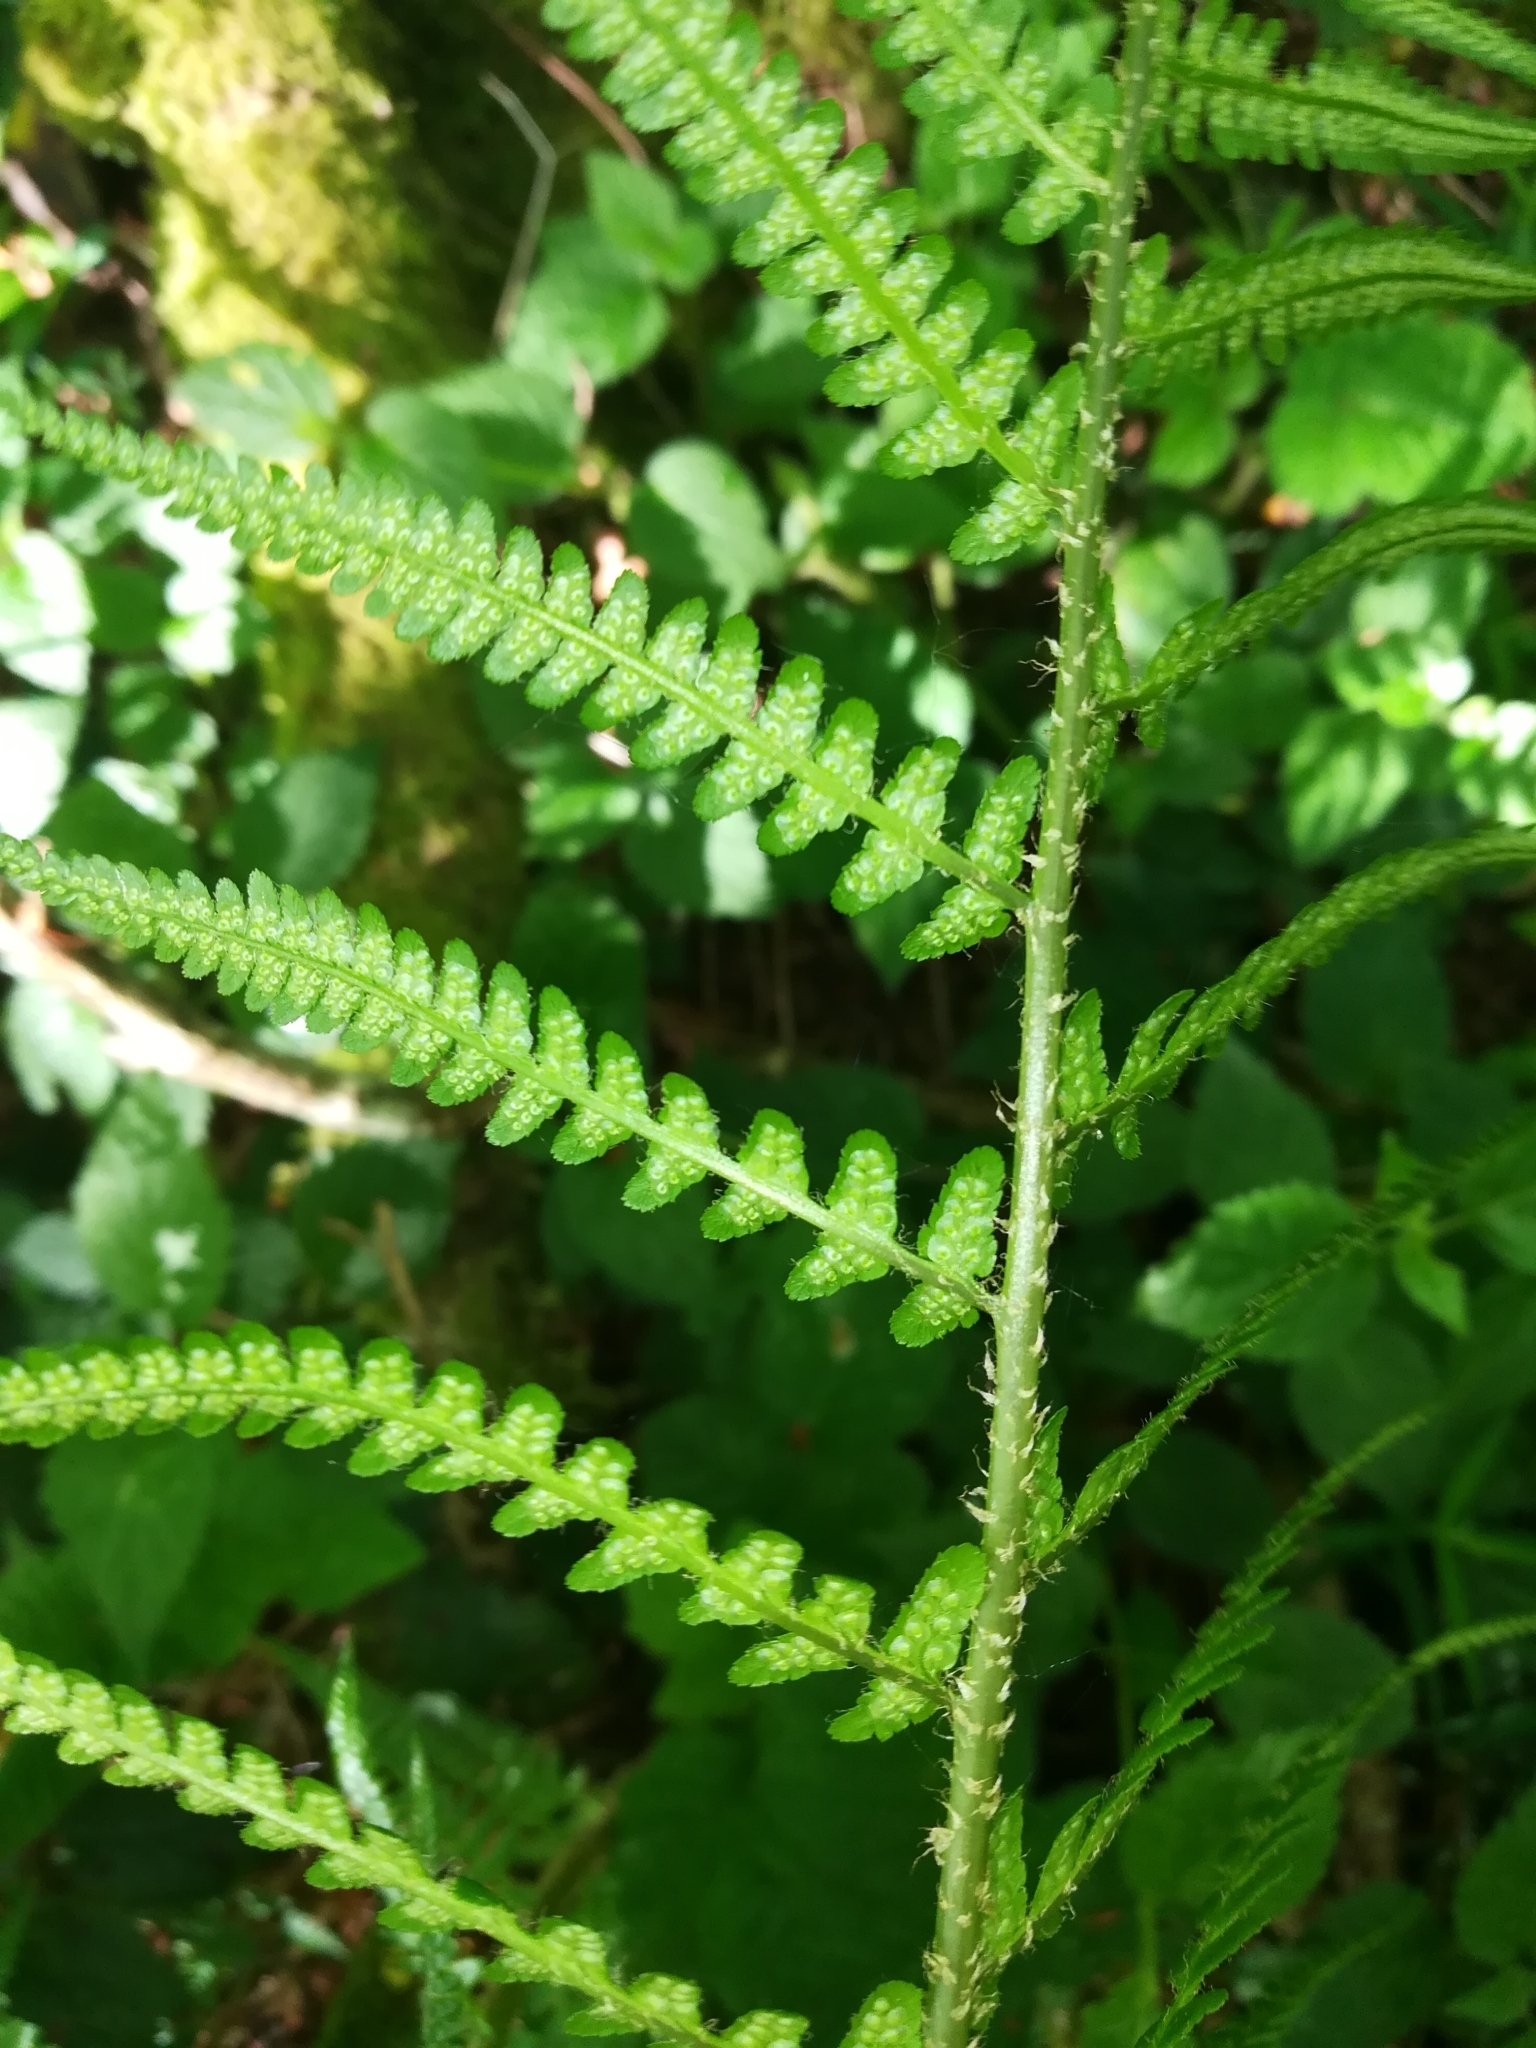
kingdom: Plantae
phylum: Tracheophyta
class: Polypodiopsida
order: Polypodiales
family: Dryopteridaceae
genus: Dryopteris
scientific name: Dryopteris filix-mas
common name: Male fern
